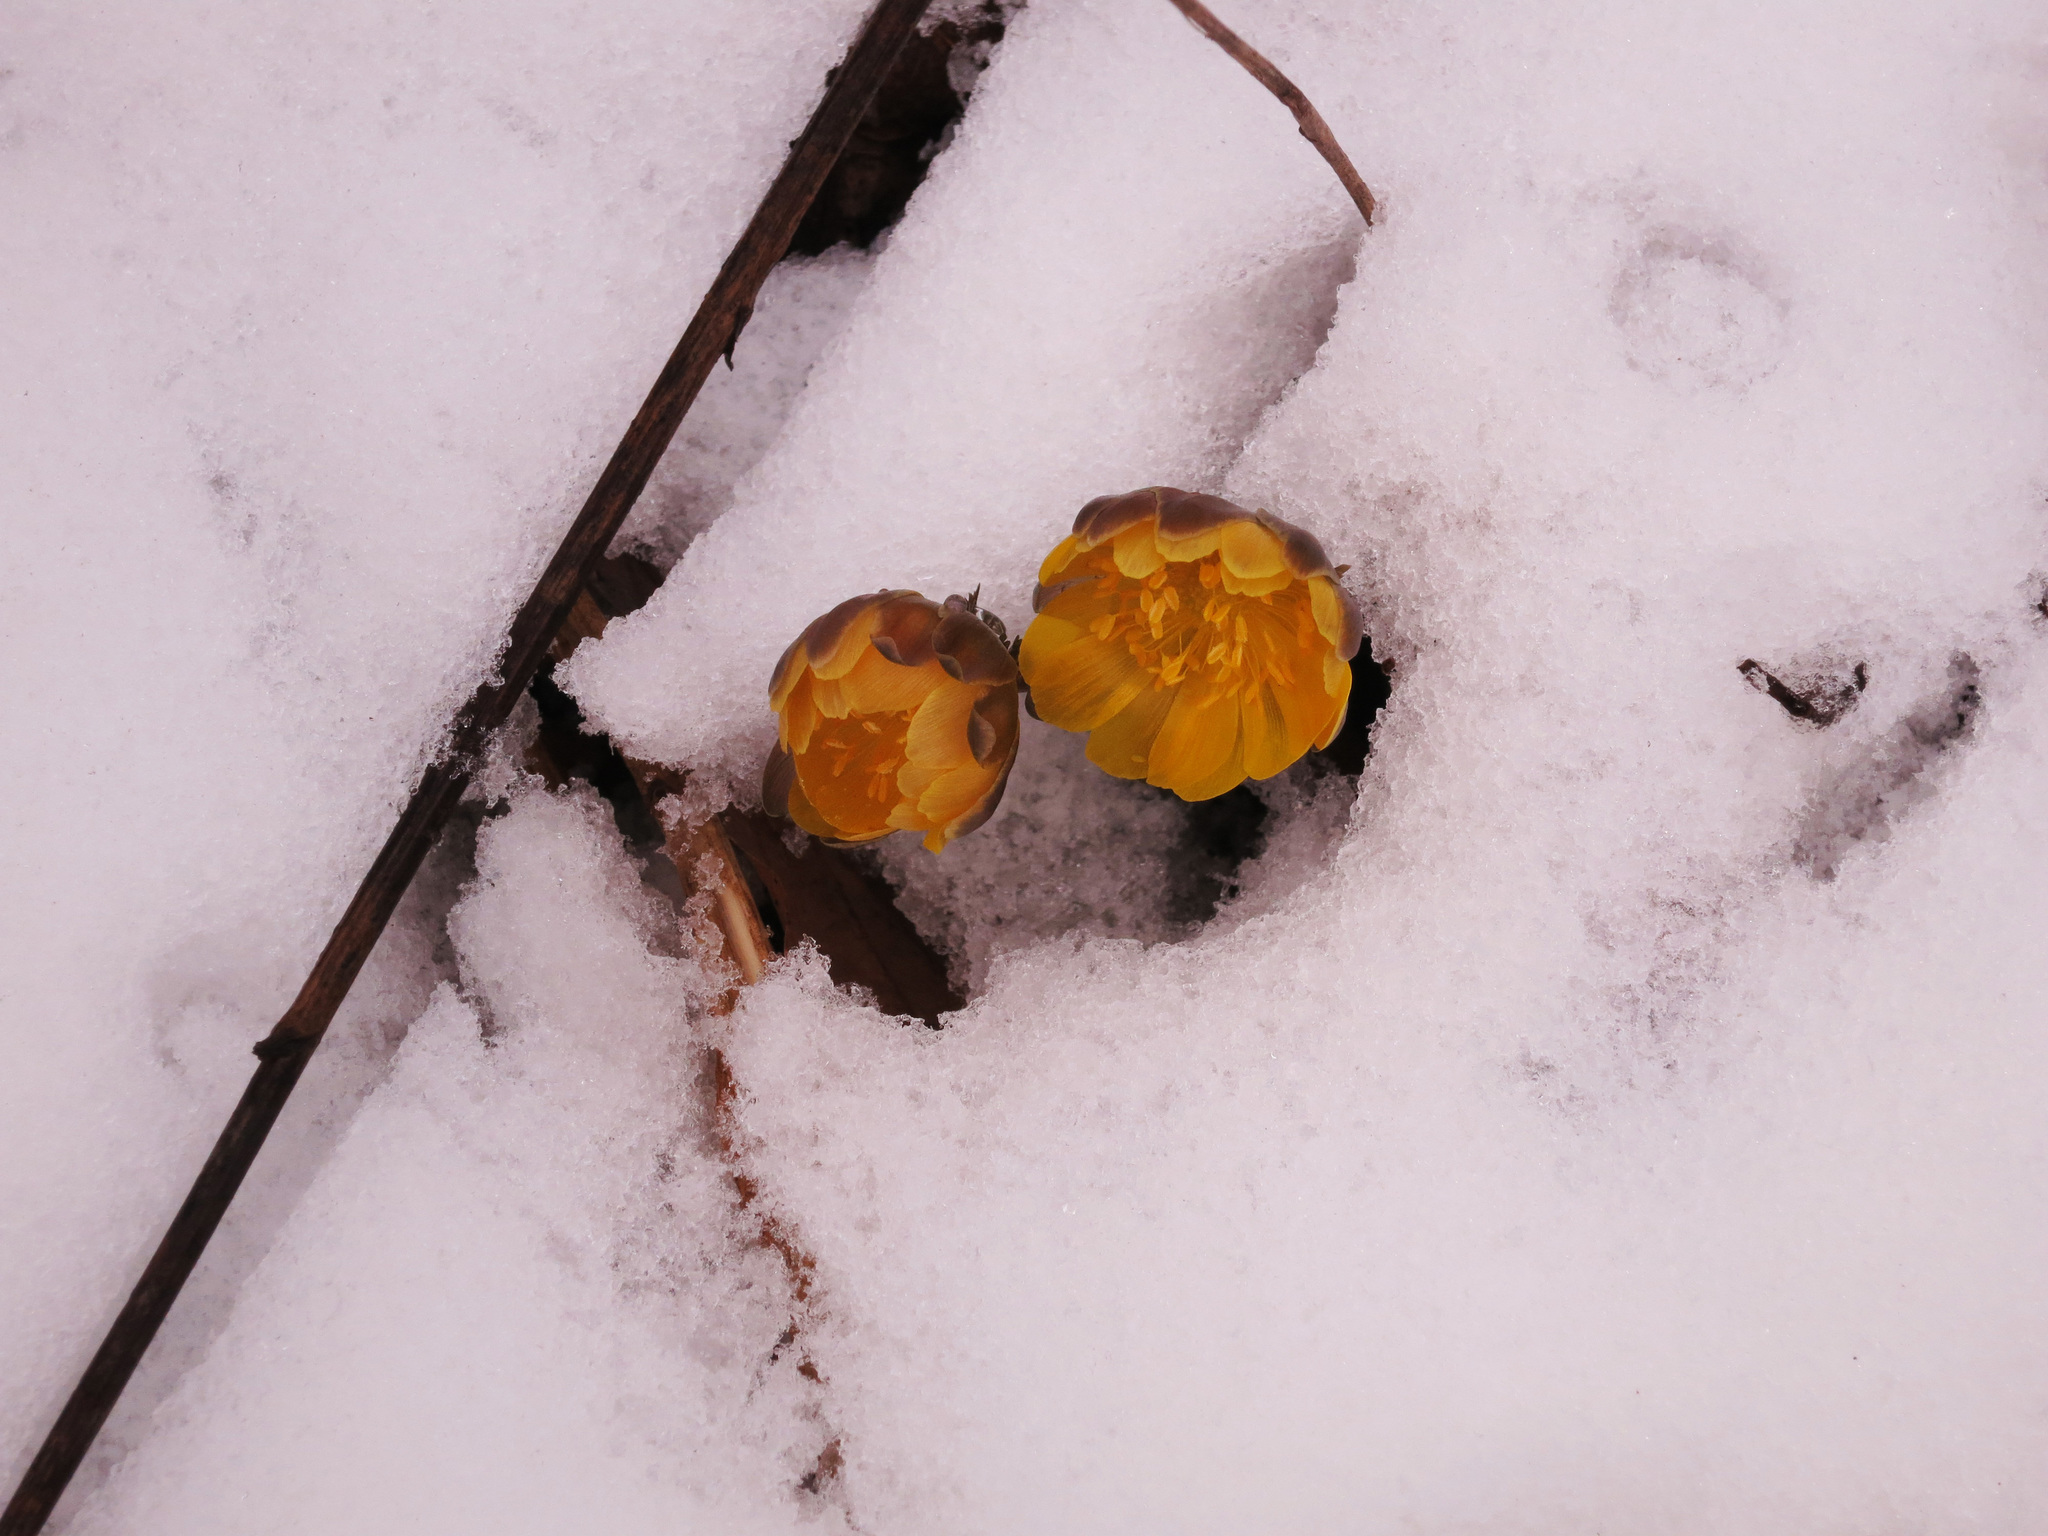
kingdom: Plantae
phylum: Tracheophyta
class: Magnoliopsida
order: Ranunculales
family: Ranunculaceae
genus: Adonis
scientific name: Adonis amurensis
